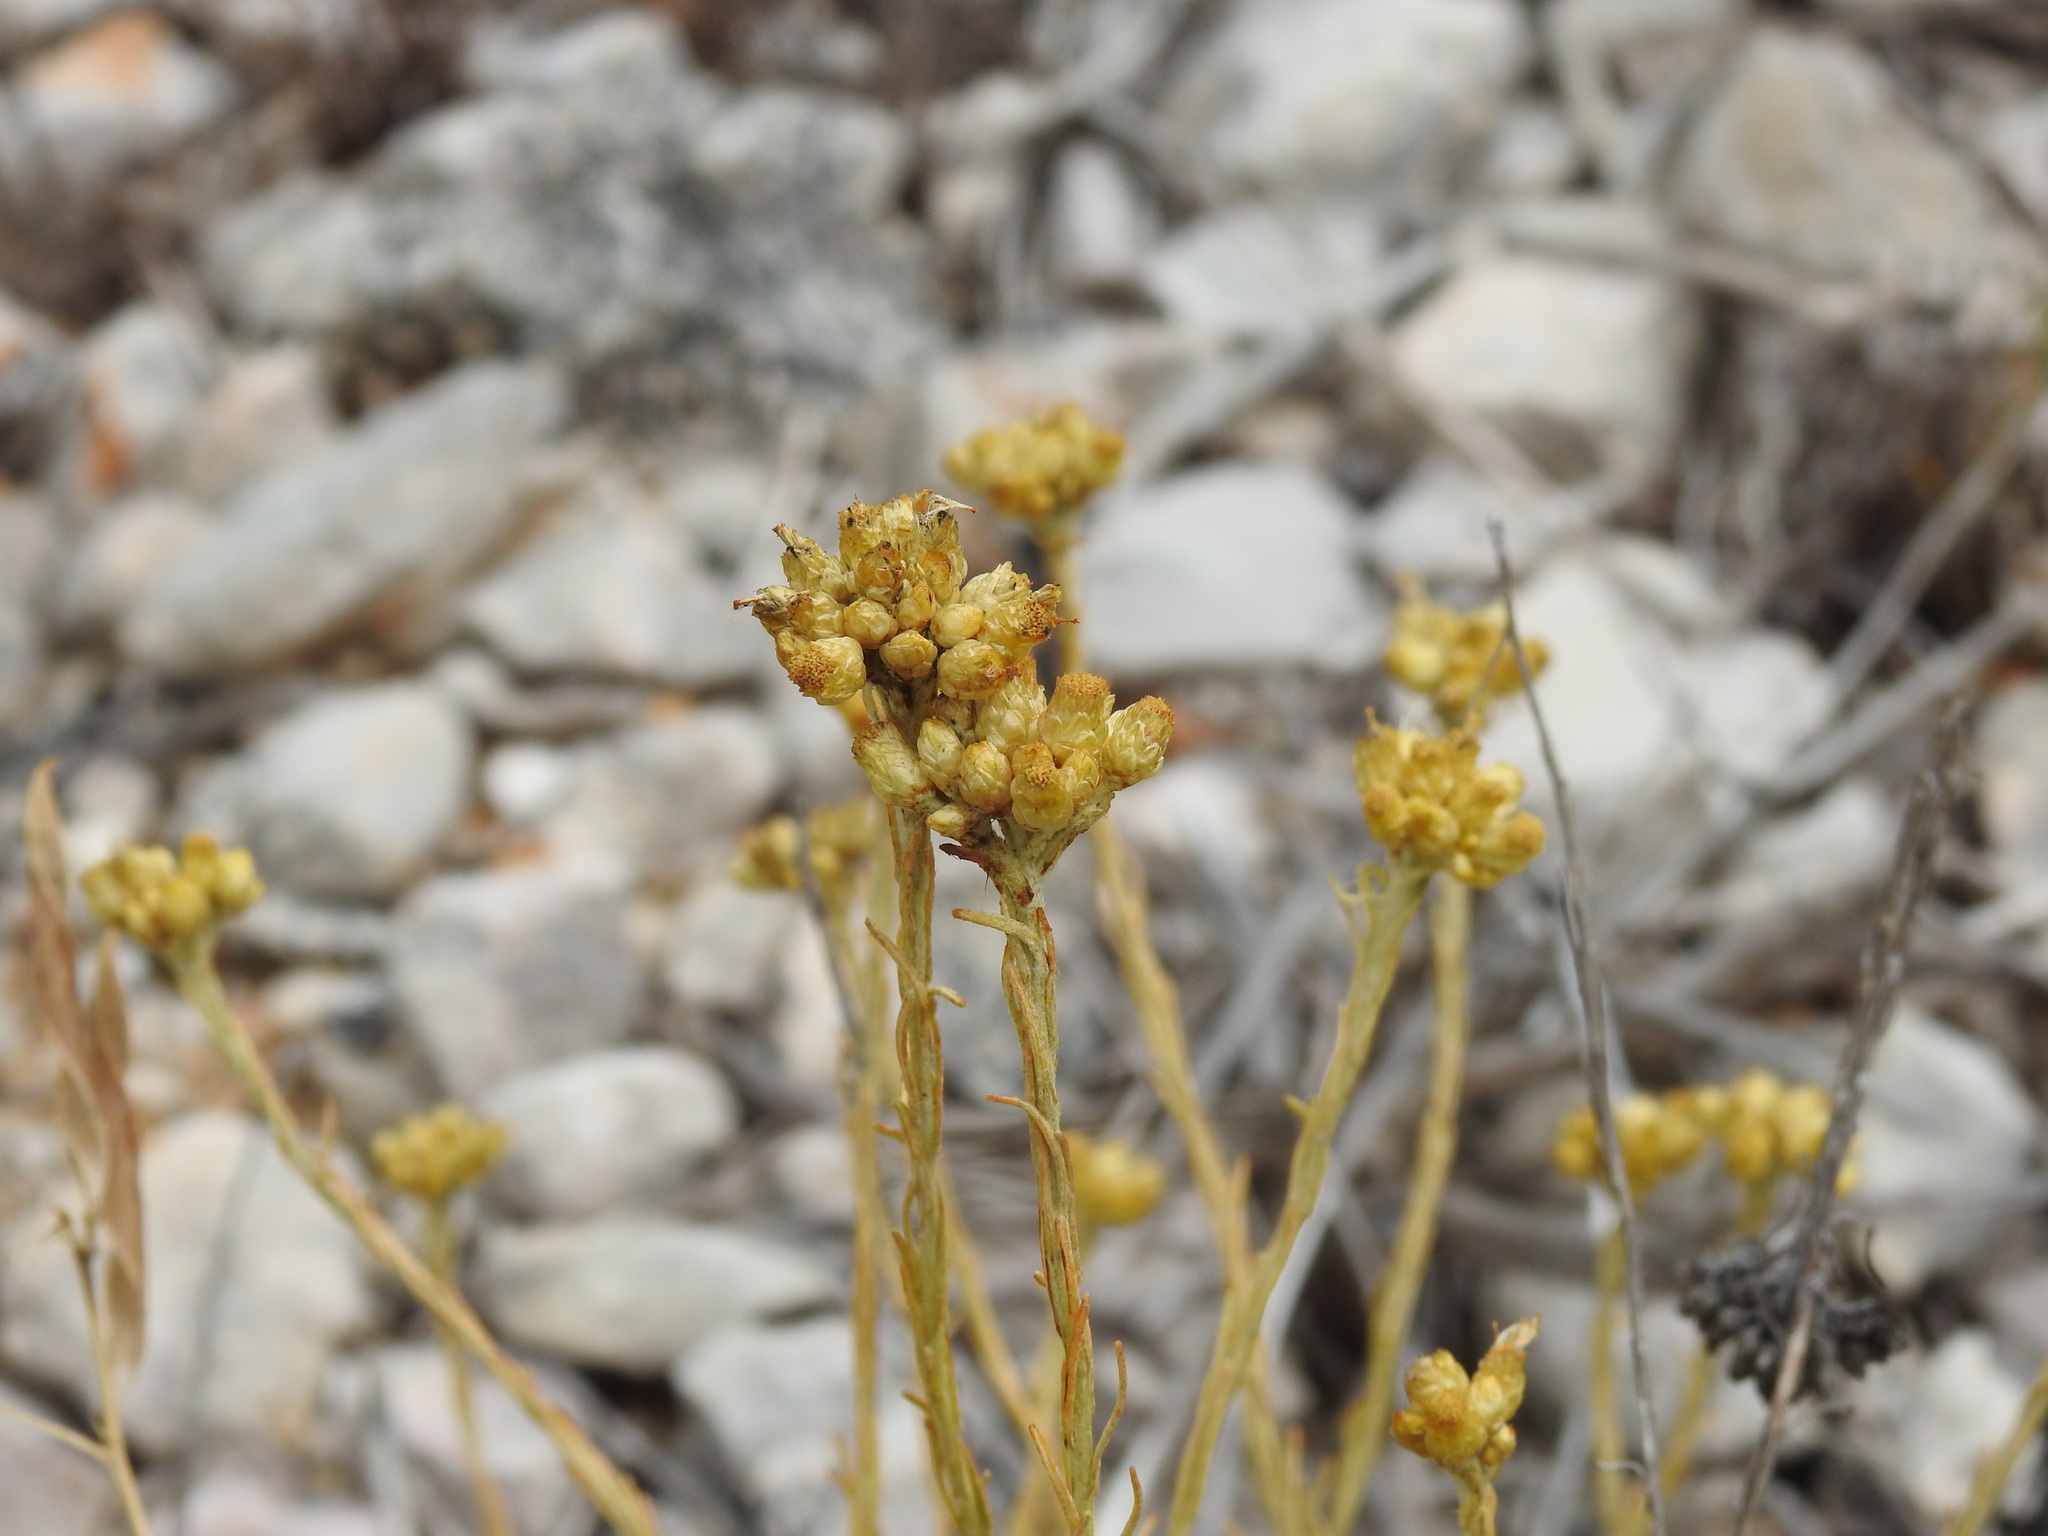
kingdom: Plantae
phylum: Tracheophyta
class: Magnoliopsida
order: Asterales
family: Asteraceae
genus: Helichrysum
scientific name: Helichrysum stoechas
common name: Goldilocks
